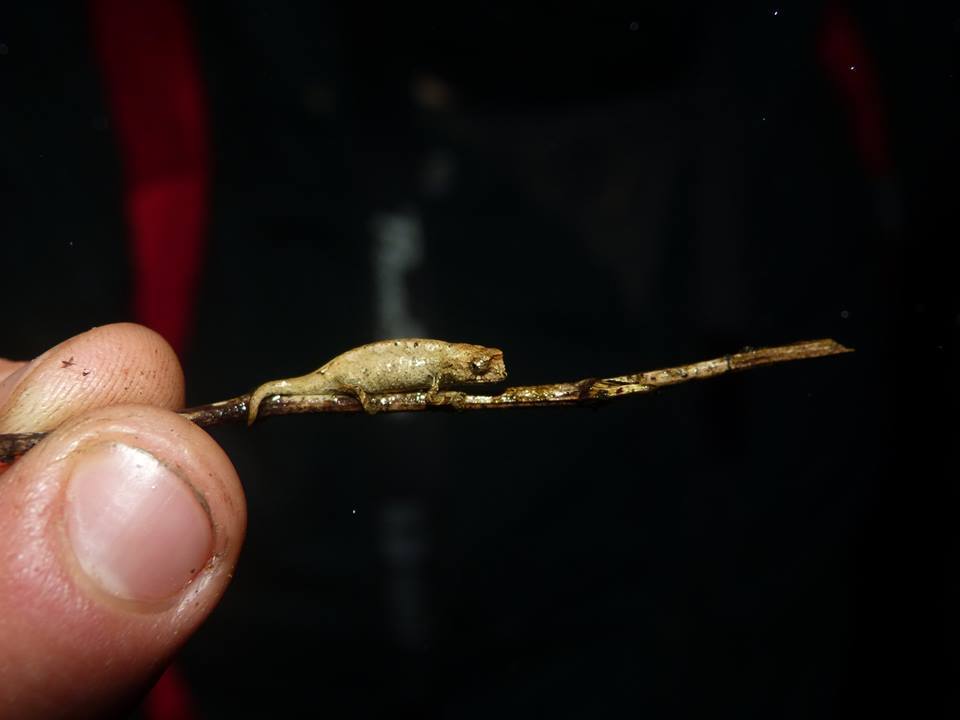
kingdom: Animalia
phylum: Chordata
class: Squamata
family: Chamaeleonidae
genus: Brookesia
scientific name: Brookesia tuberculata
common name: Mount d'ambre leaf chameleon
